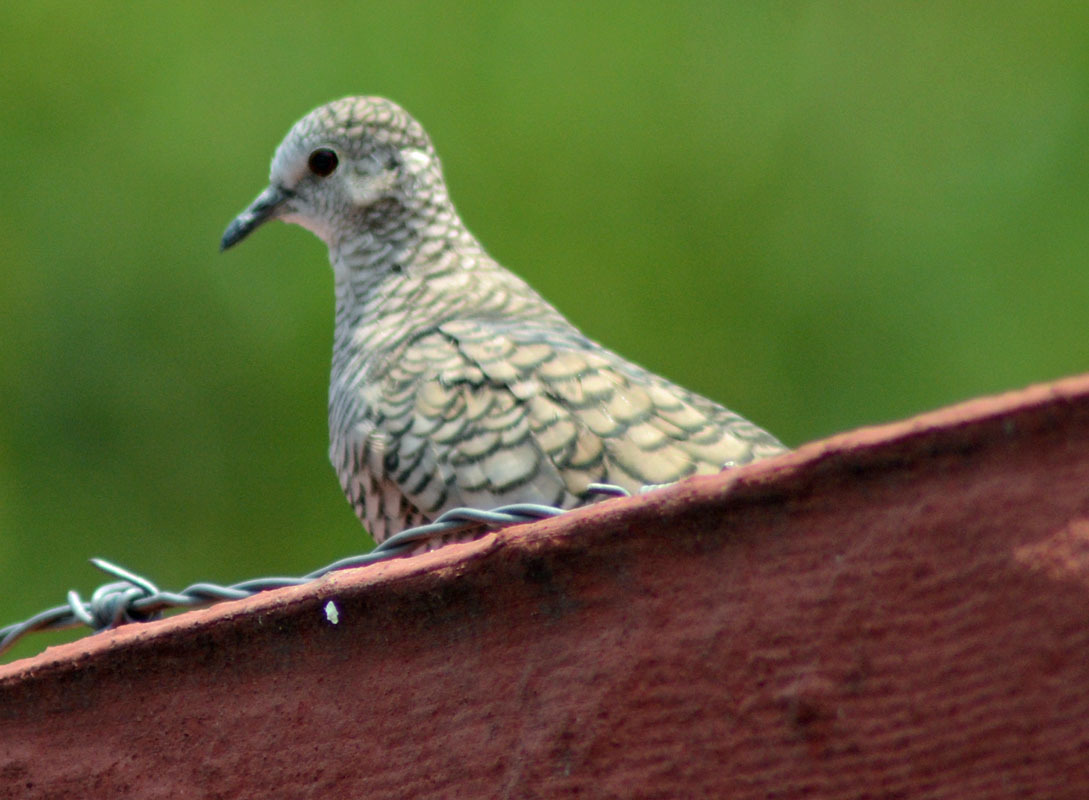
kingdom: Animalia
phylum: Chordata
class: Aves
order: Columbiformes
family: Columbidae
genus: Columbina
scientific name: Columbina inca
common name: Inca dove
